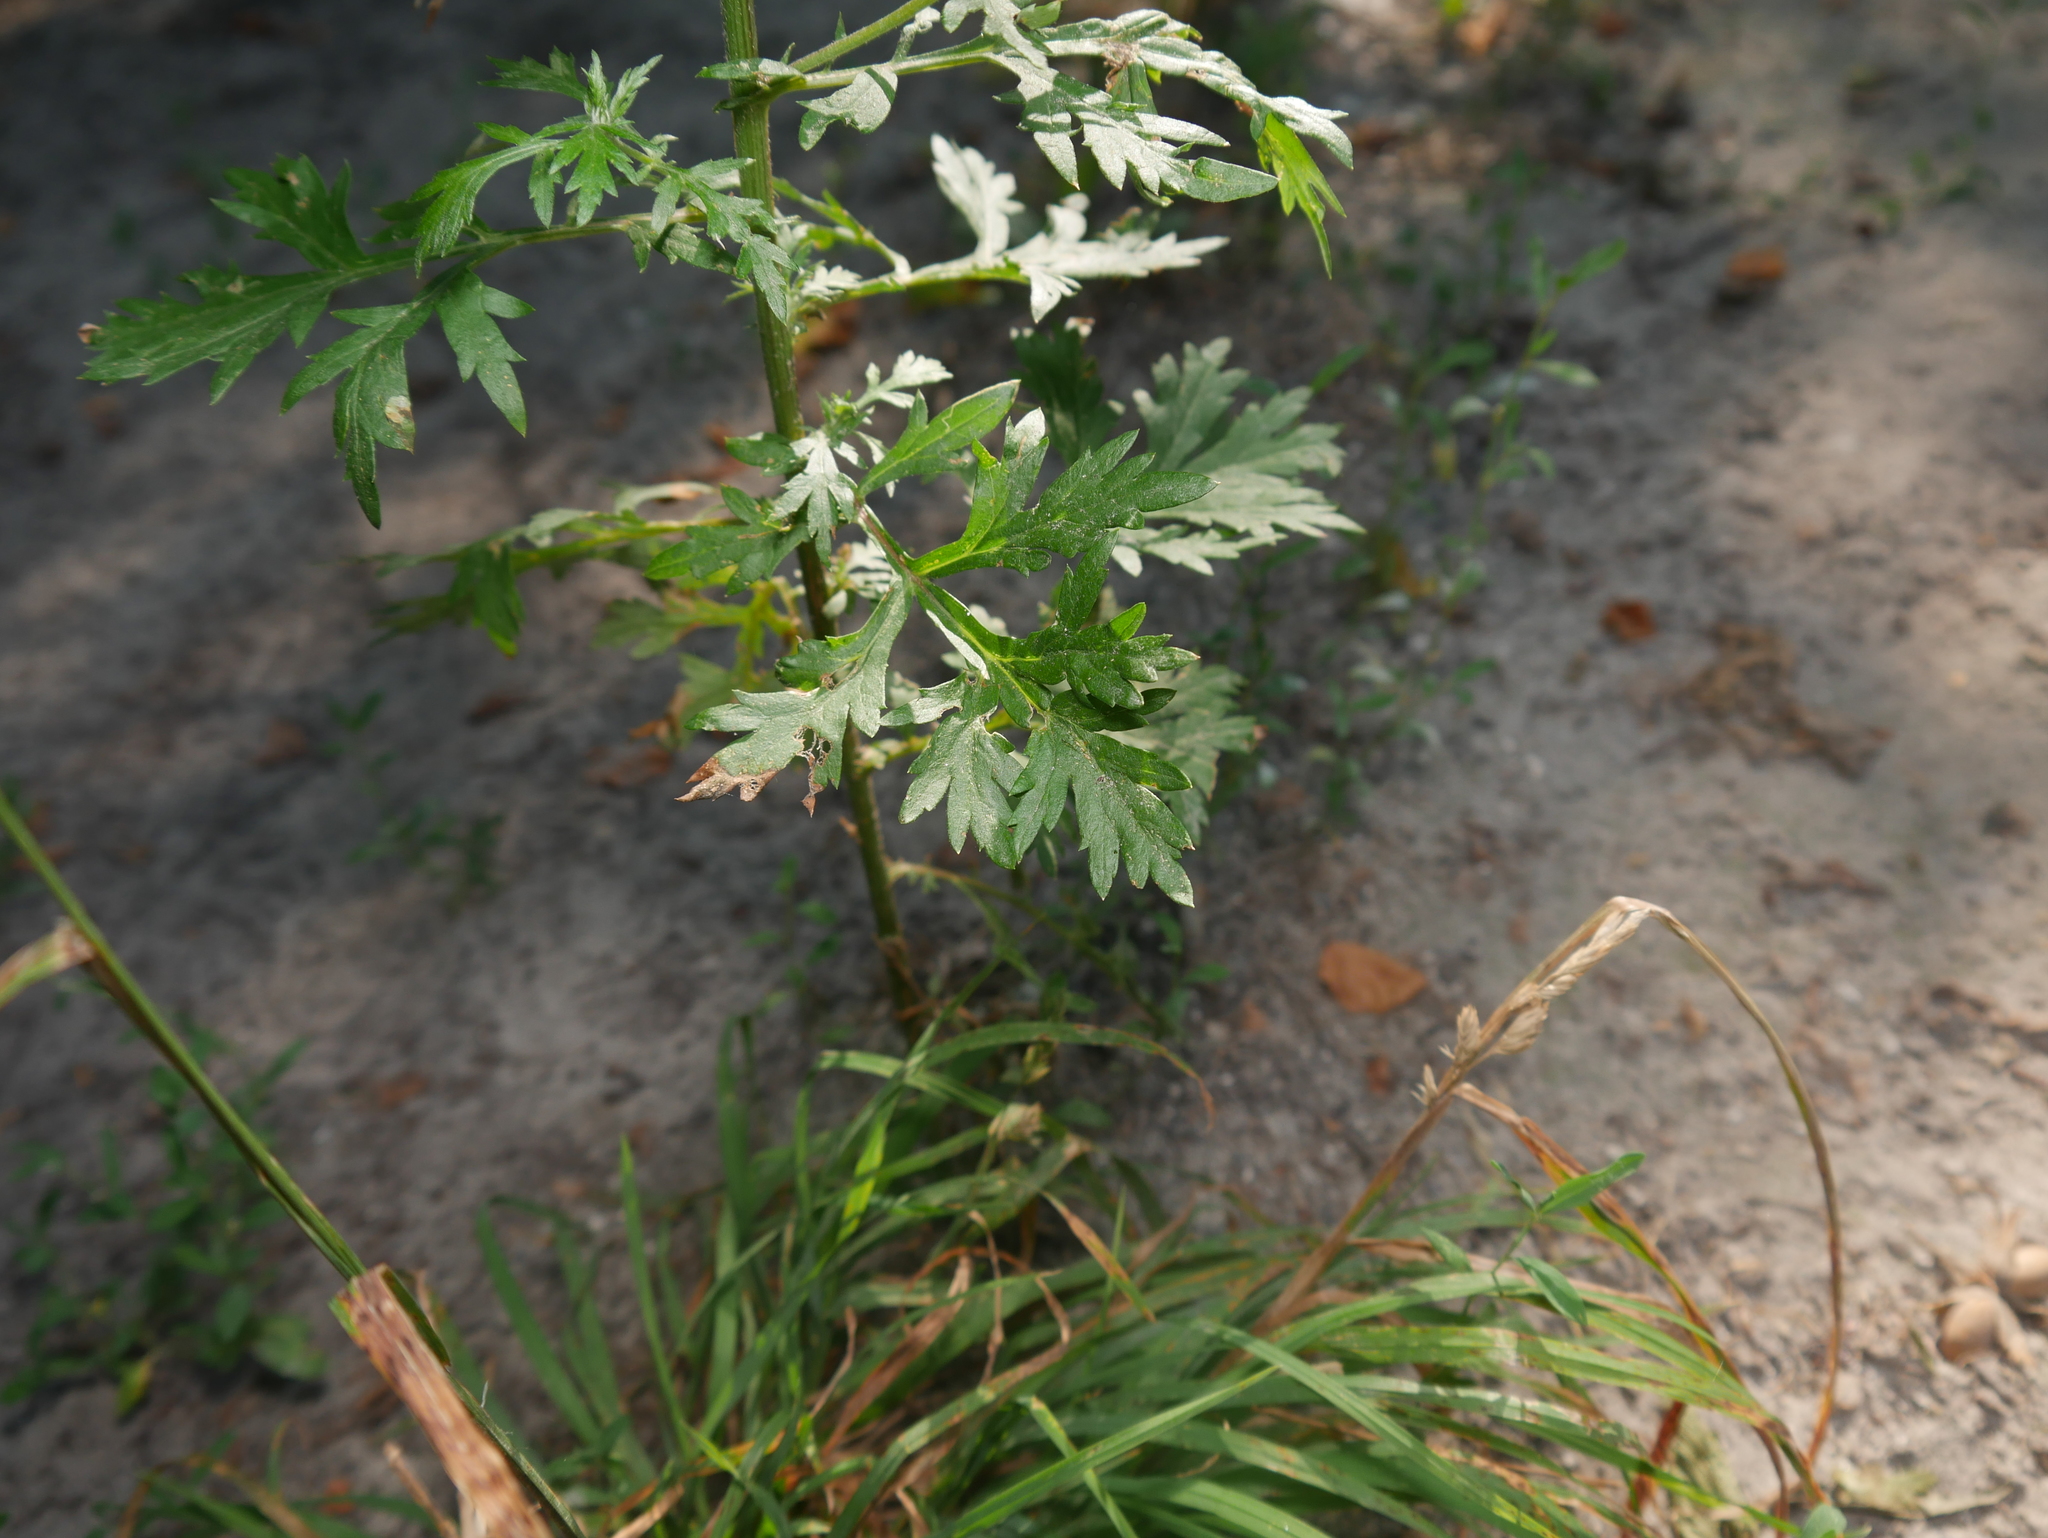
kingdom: Plantae
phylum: Tracheophyta
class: Magnoliopsida
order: Asterales
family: Asteraceae
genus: Artemisia
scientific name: Artemisia vulgaris
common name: Mugwort
